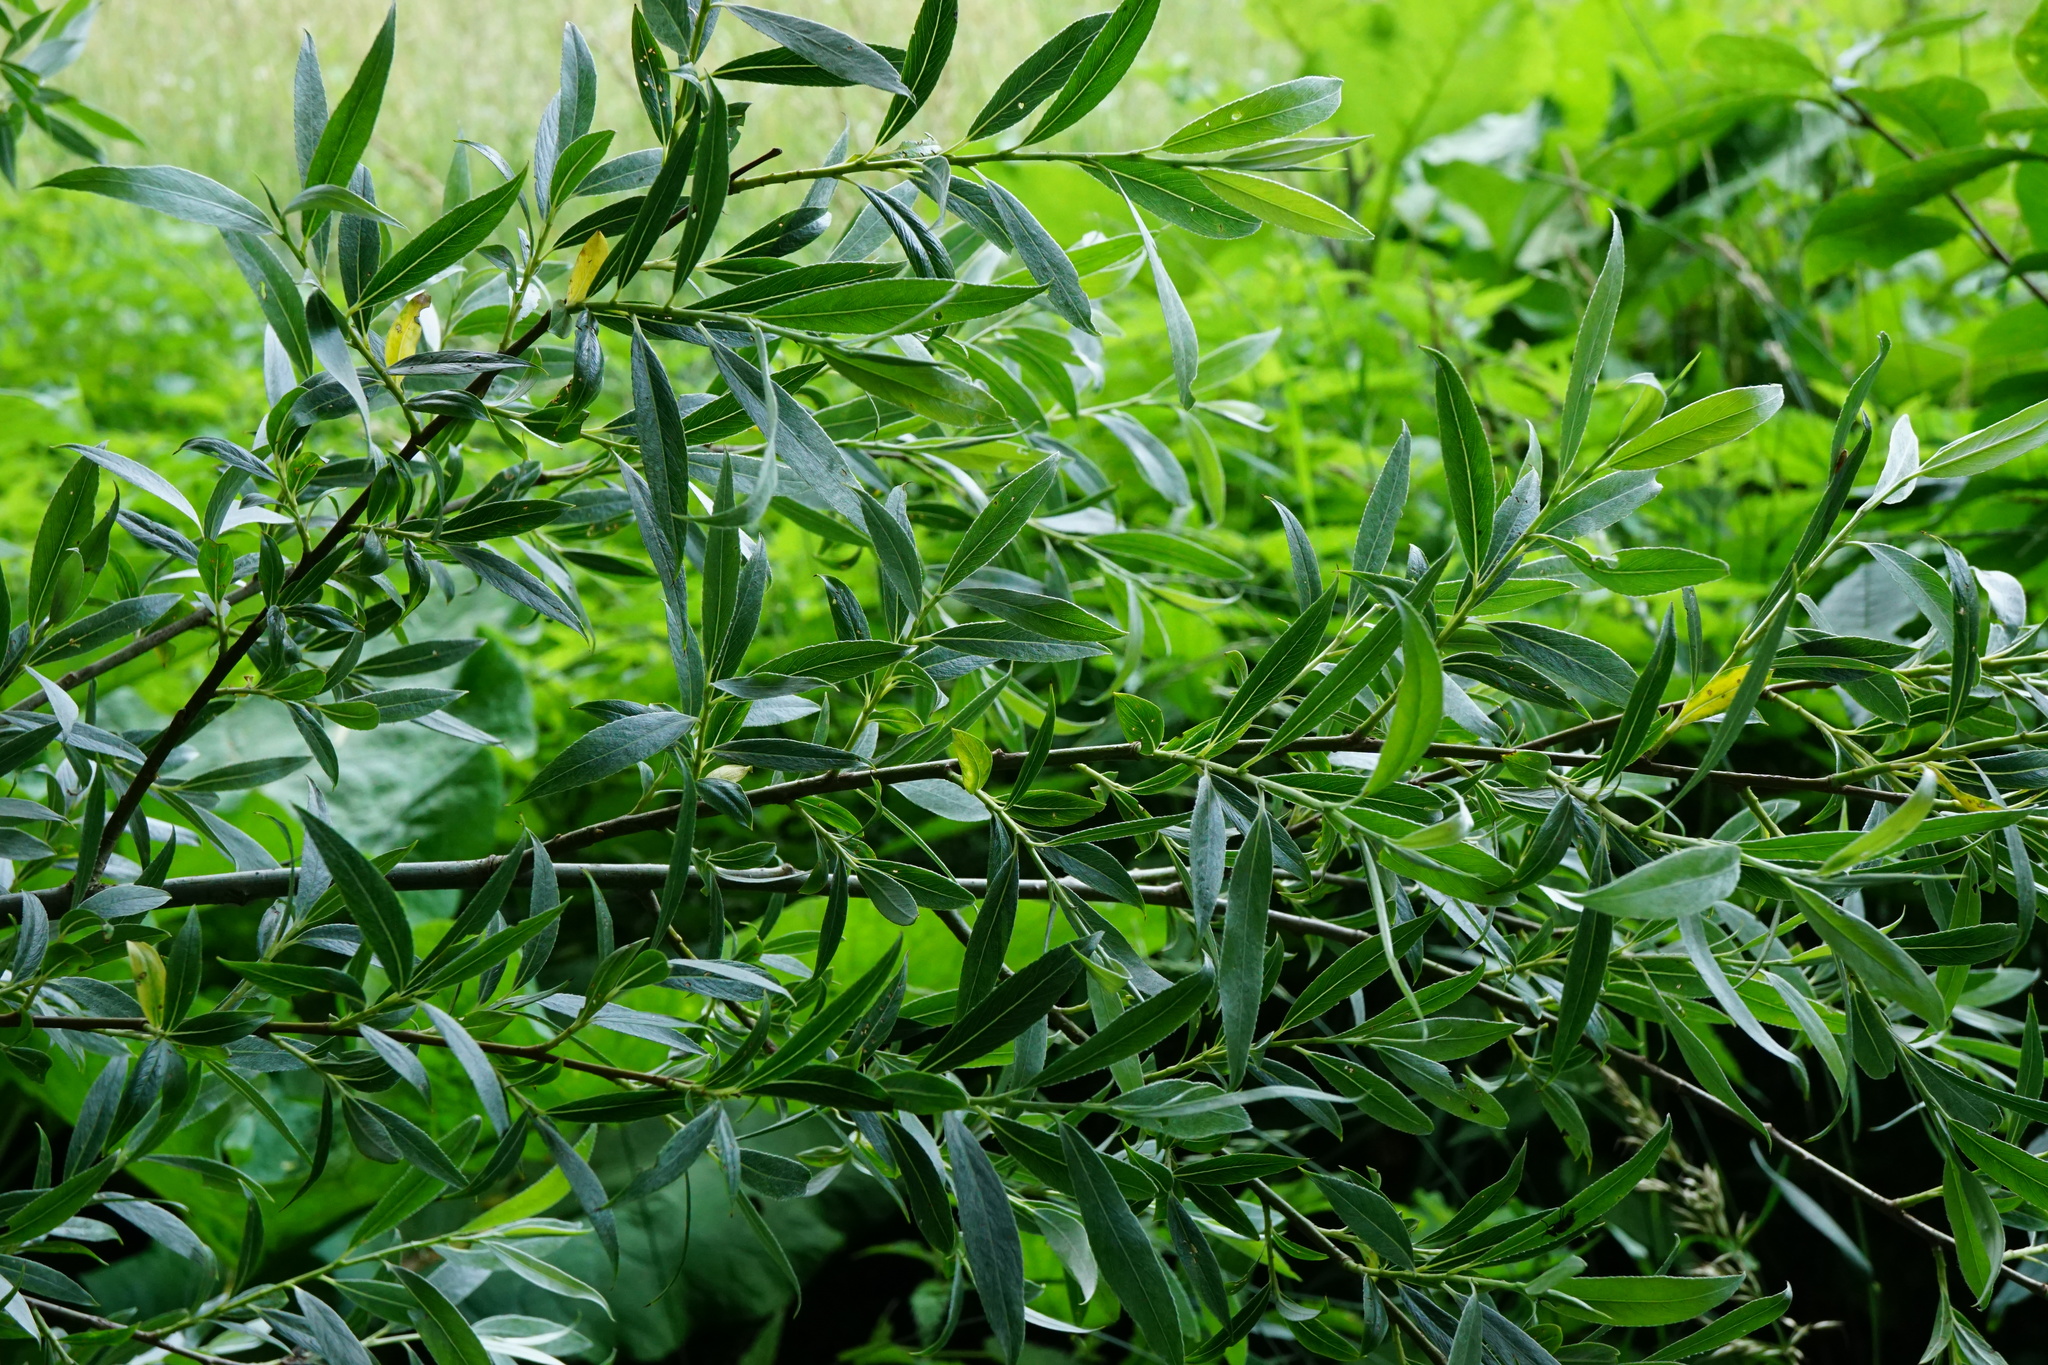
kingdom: Plantae
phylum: Tracheophyta
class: Magnoliopsida
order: Malpighiales
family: Salicaceae
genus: Salix
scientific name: Salix alba
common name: White willow
